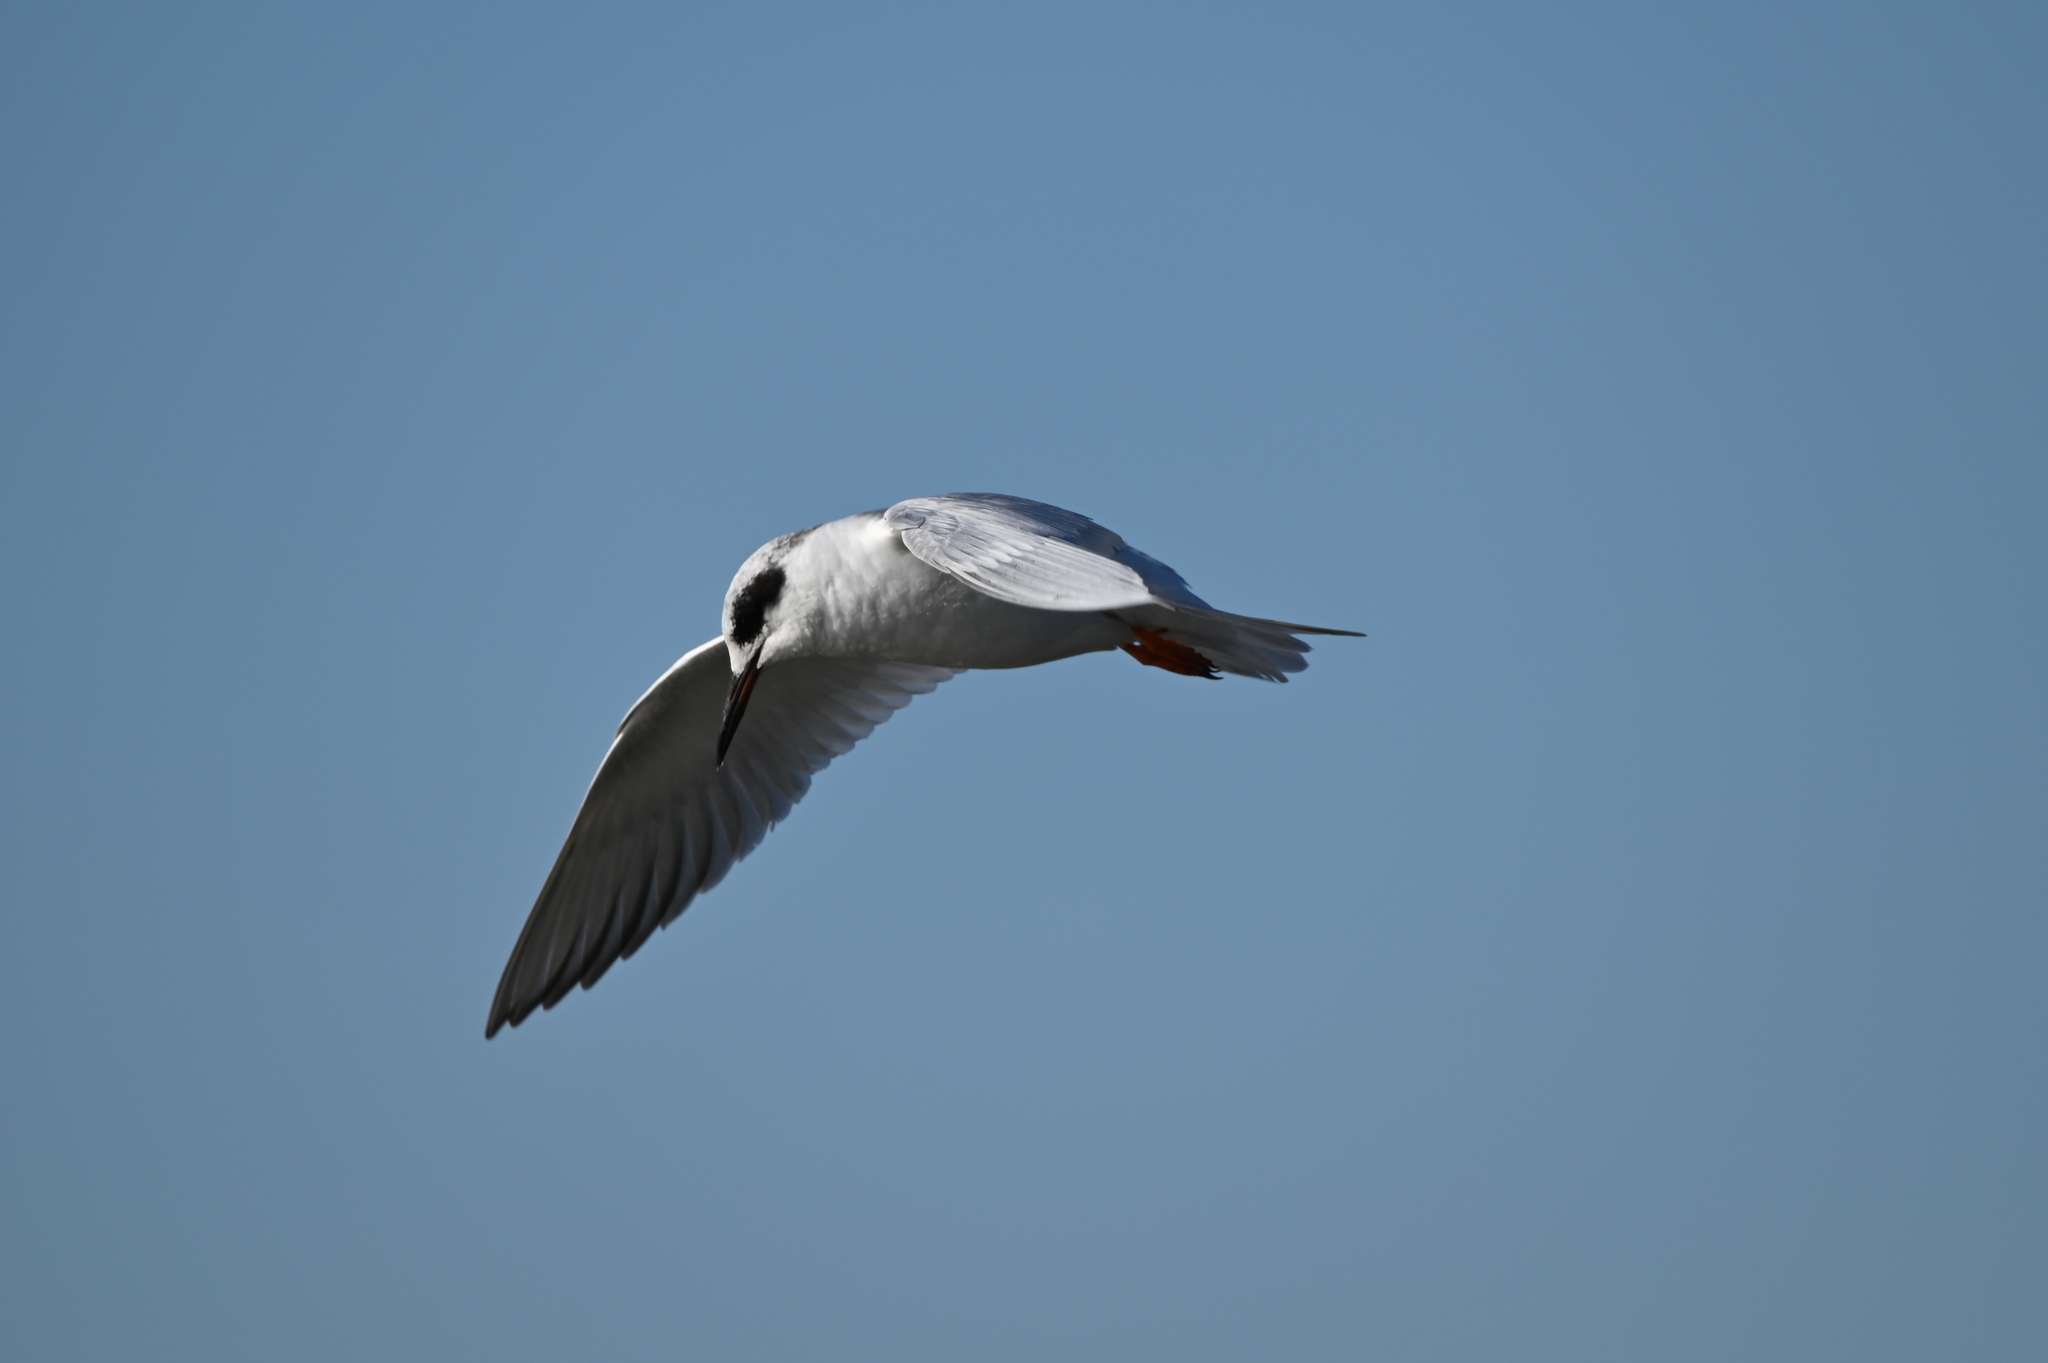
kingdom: Animalia
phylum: Chordata
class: Aves
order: Charadriiformes
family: Laridae
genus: Sterna
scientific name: Sterna forsteri
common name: Forster's tern
